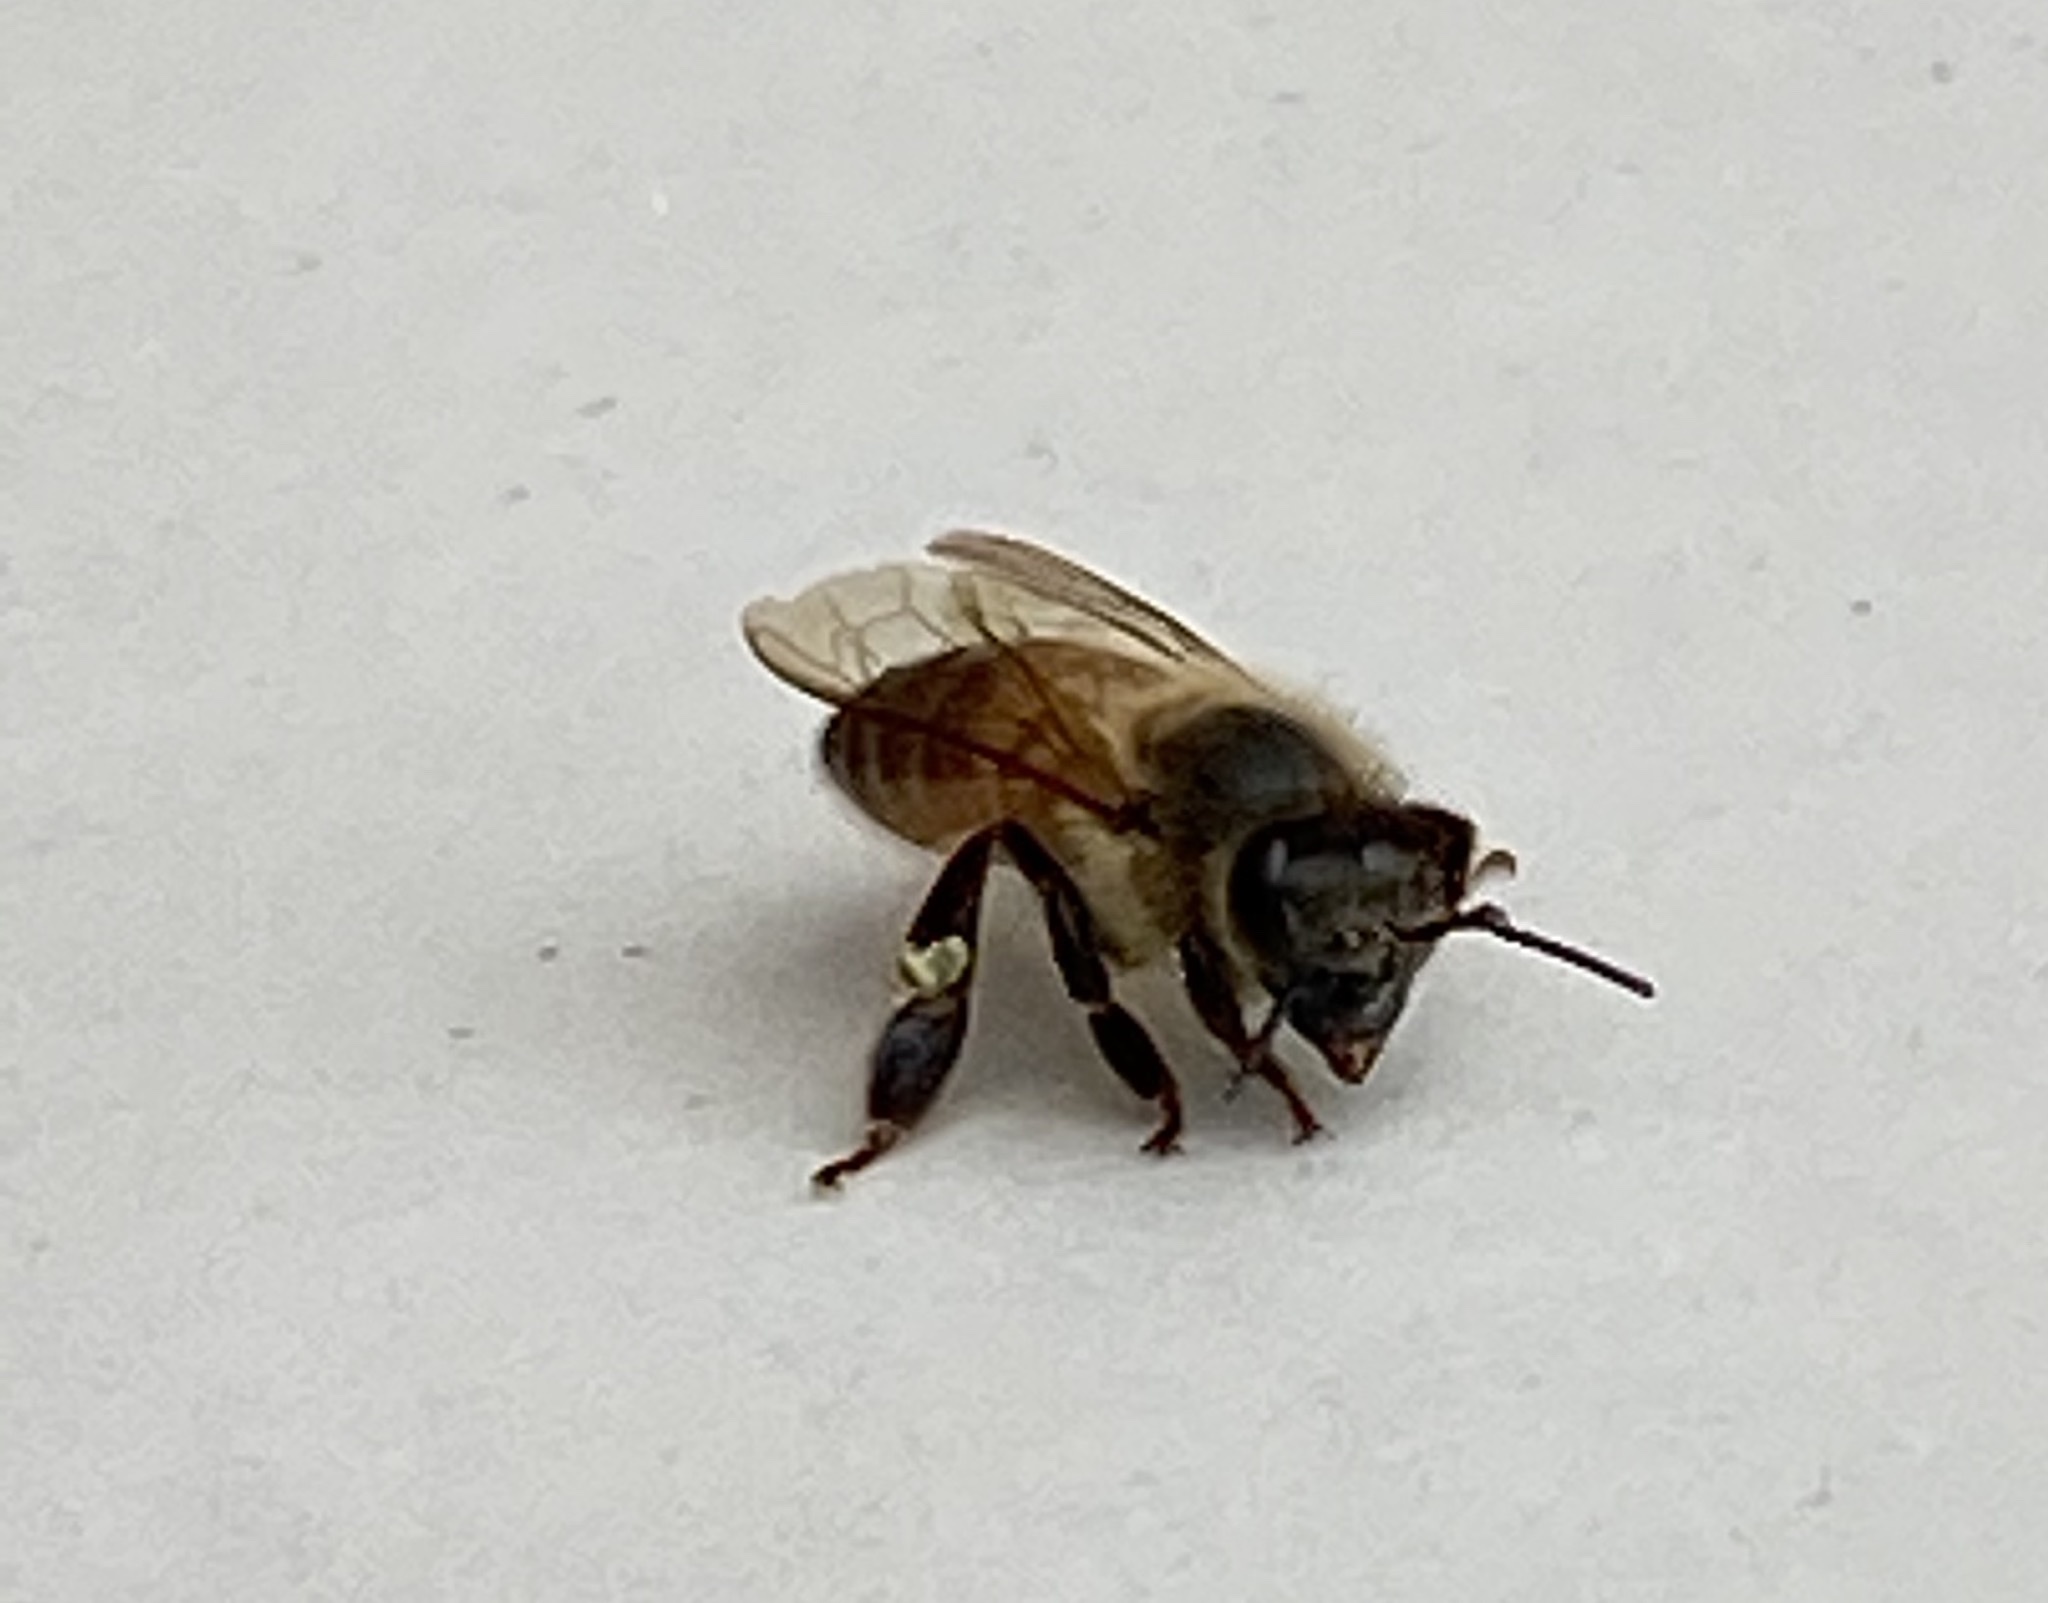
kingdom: Animalia
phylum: Arthropoda
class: Insecta
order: Hymenoptera
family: Apidae
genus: Apis
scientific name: Apis mellifera
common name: Honey bee
